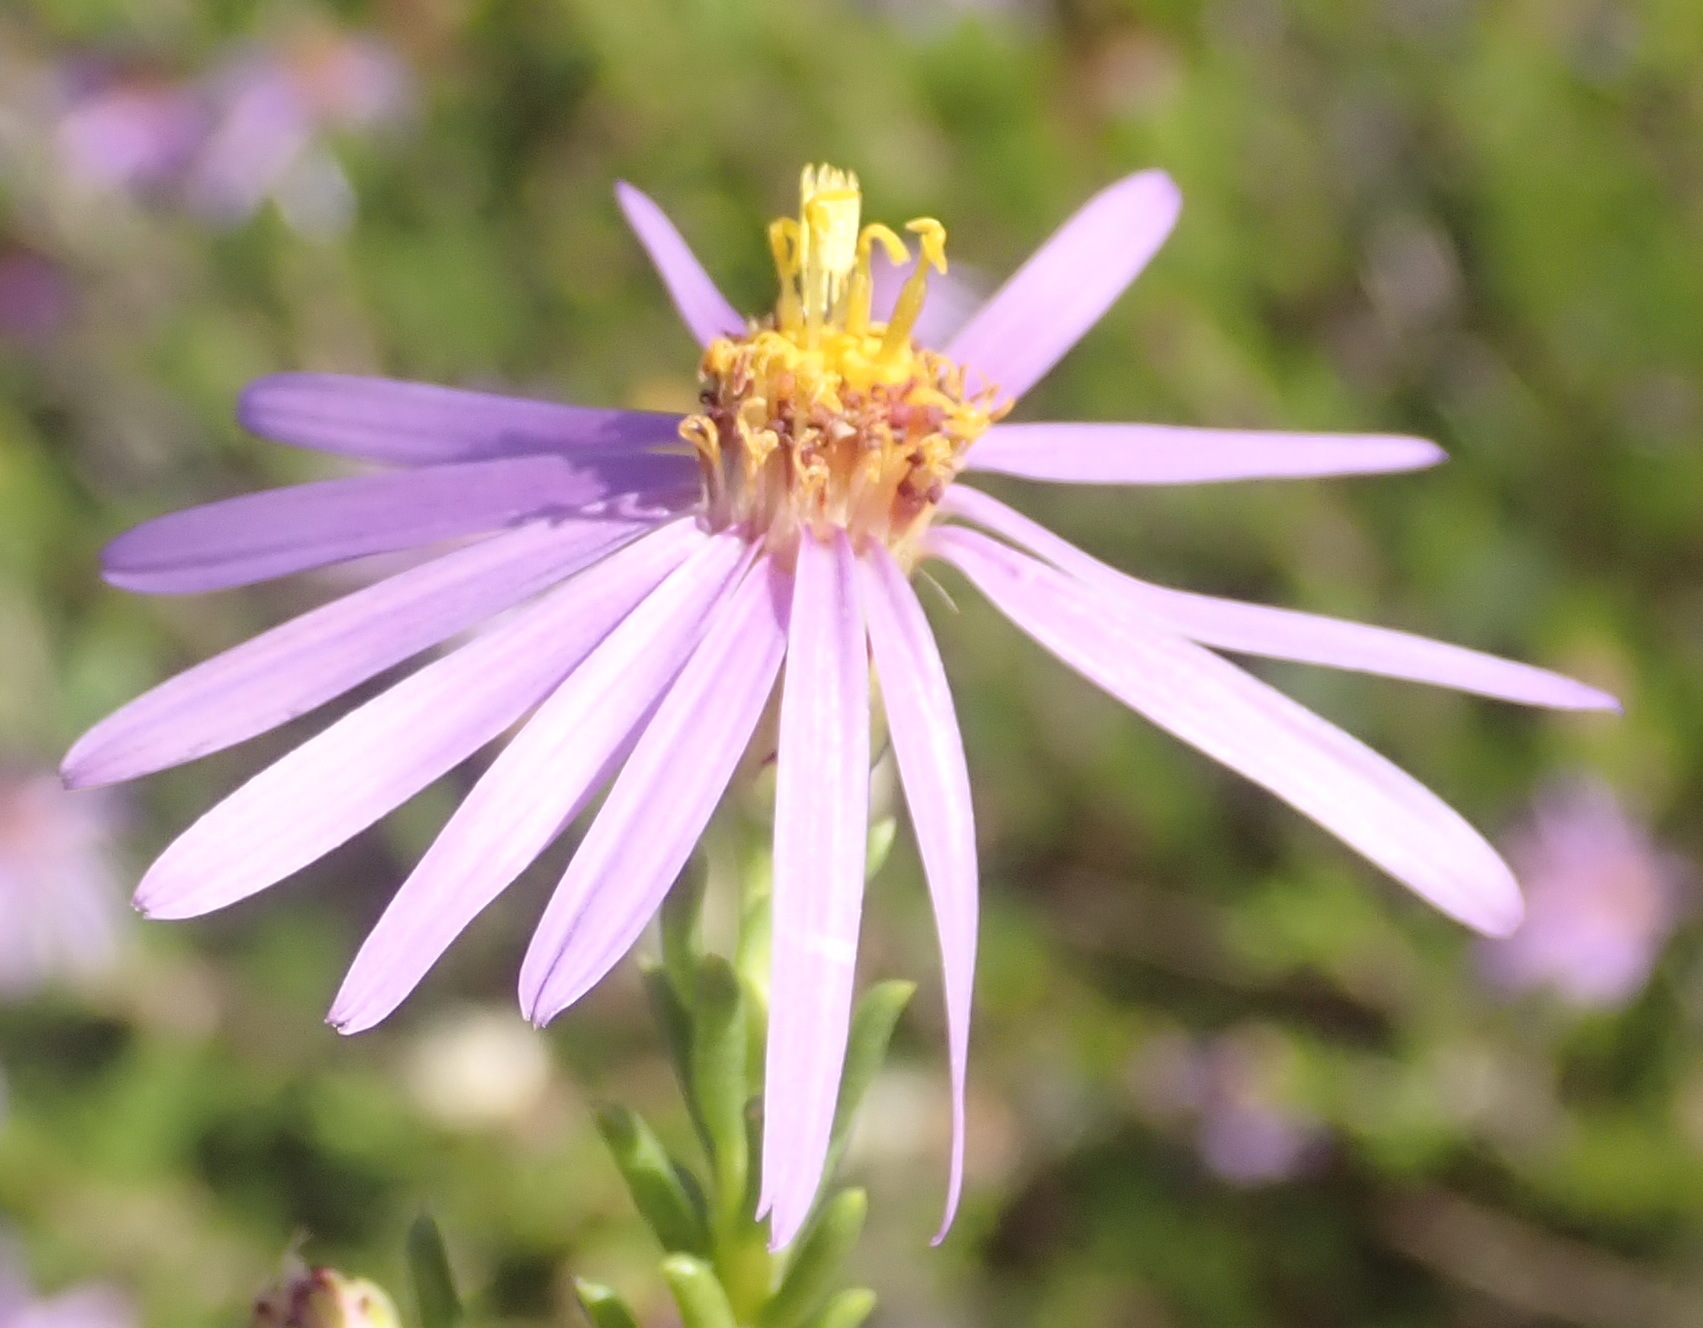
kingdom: Plantae
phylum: Tracheophyta
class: Magnoliopsida
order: Asterales
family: Asteraceae
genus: Felicia
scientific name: Felicia filifolia
